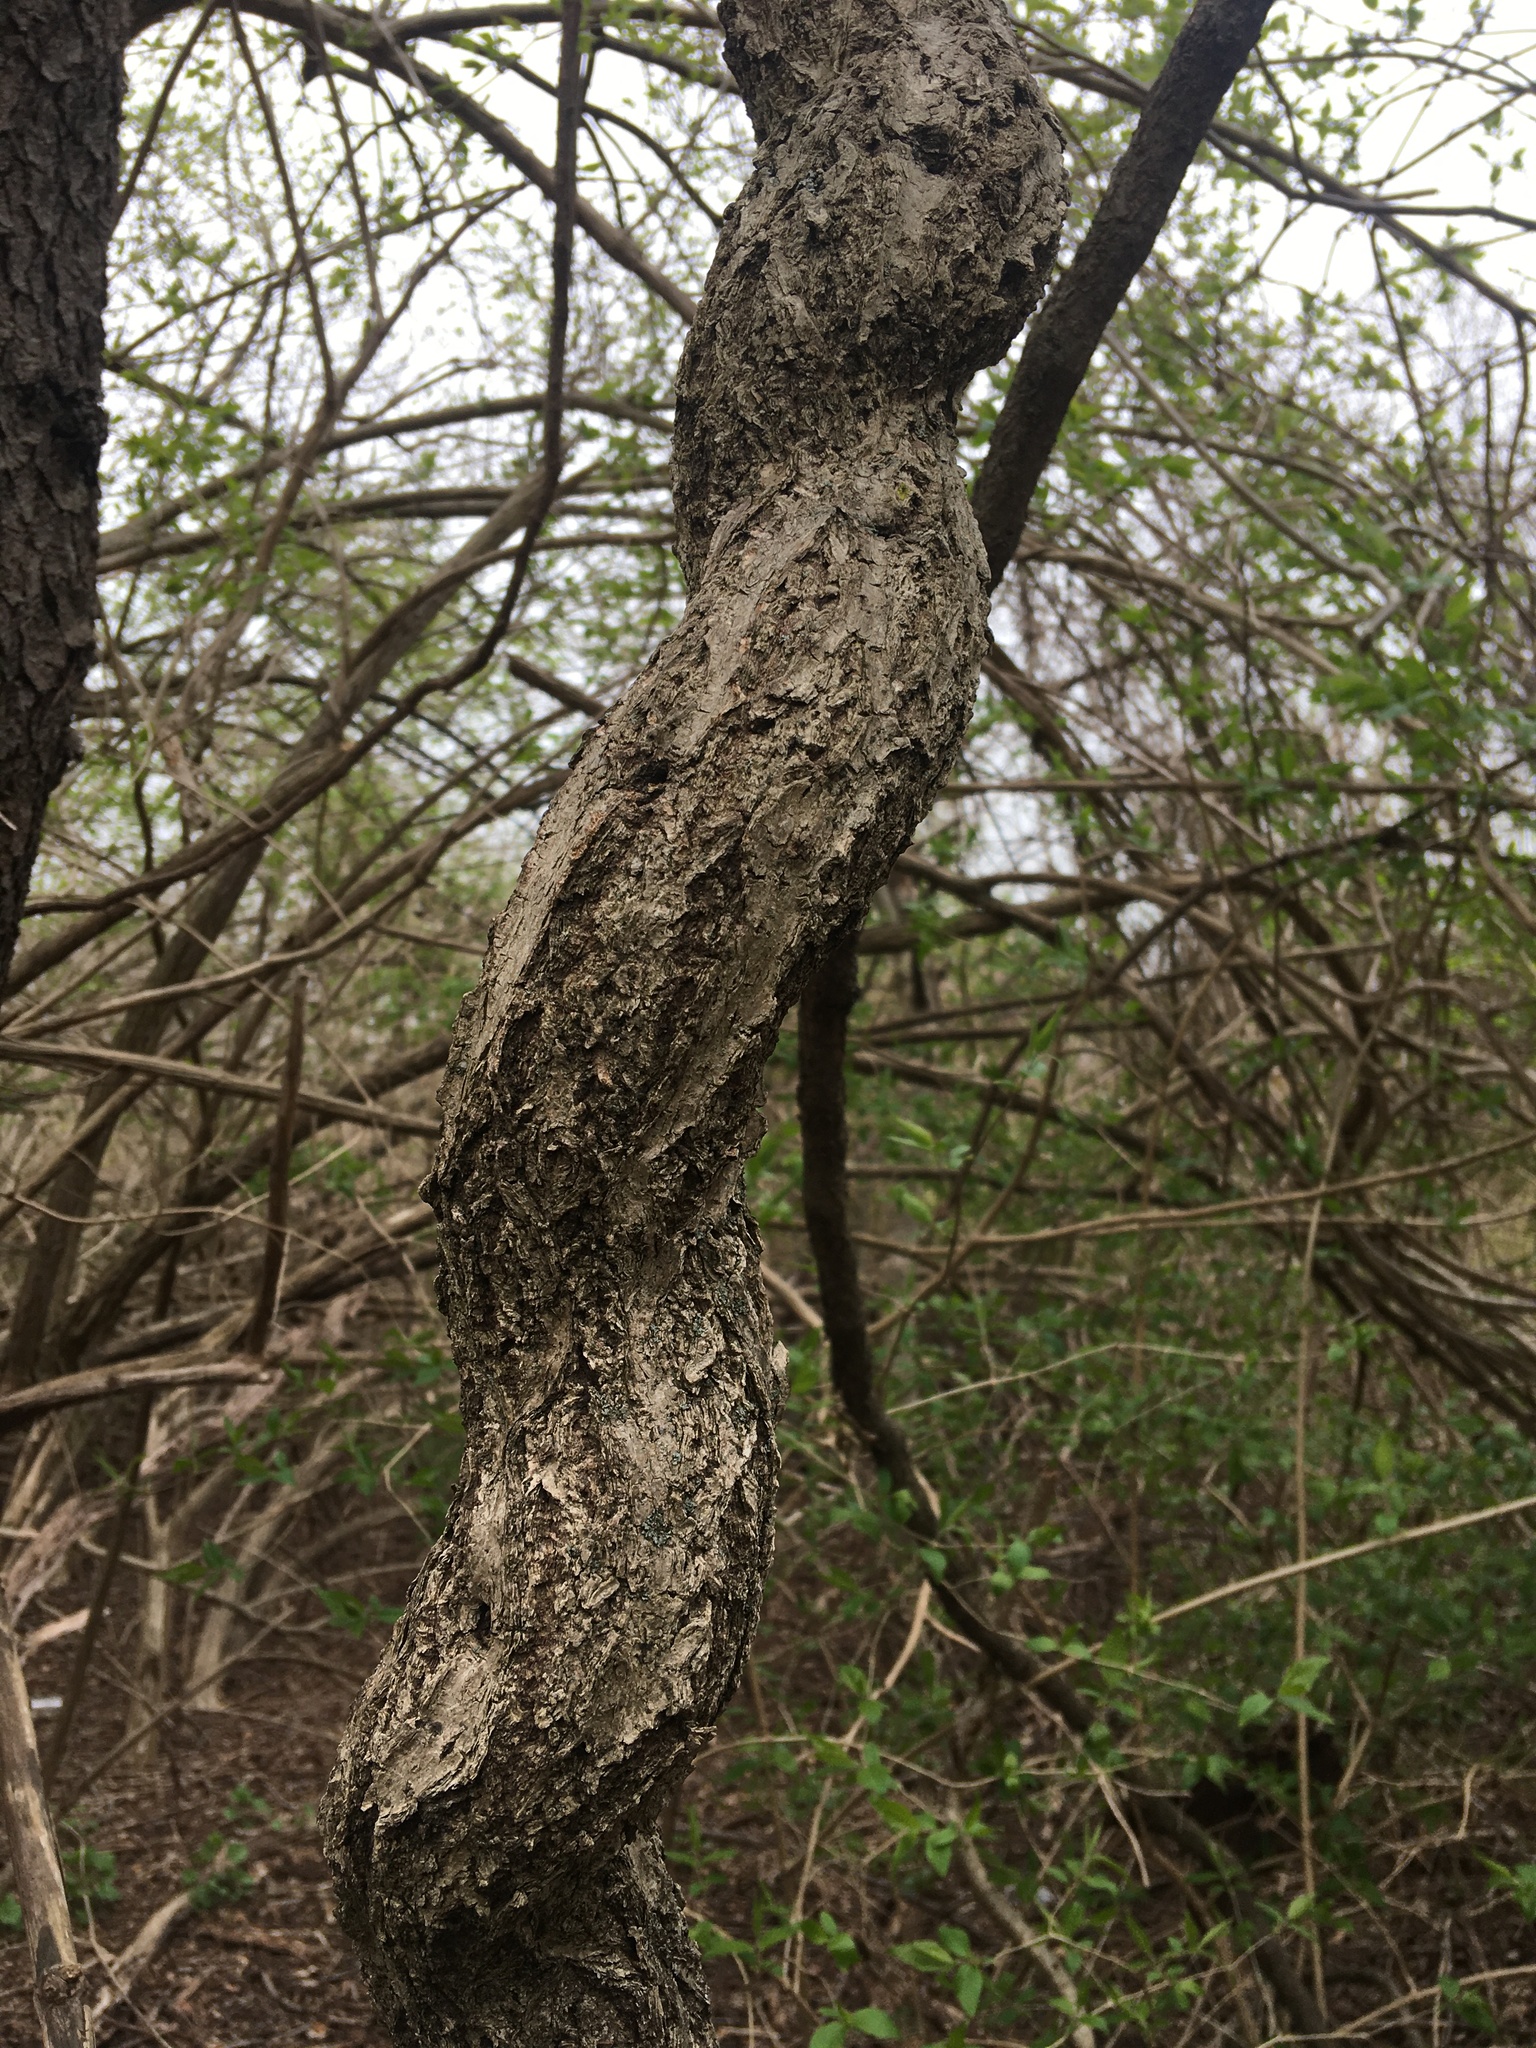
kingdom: Plantae
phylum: Tracheophyta
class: Magnoliopsida
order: Celastrales
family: Celastraceae
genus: Celastrus
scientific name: Celastrus orbiculatus
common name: Oriental bittersweet
